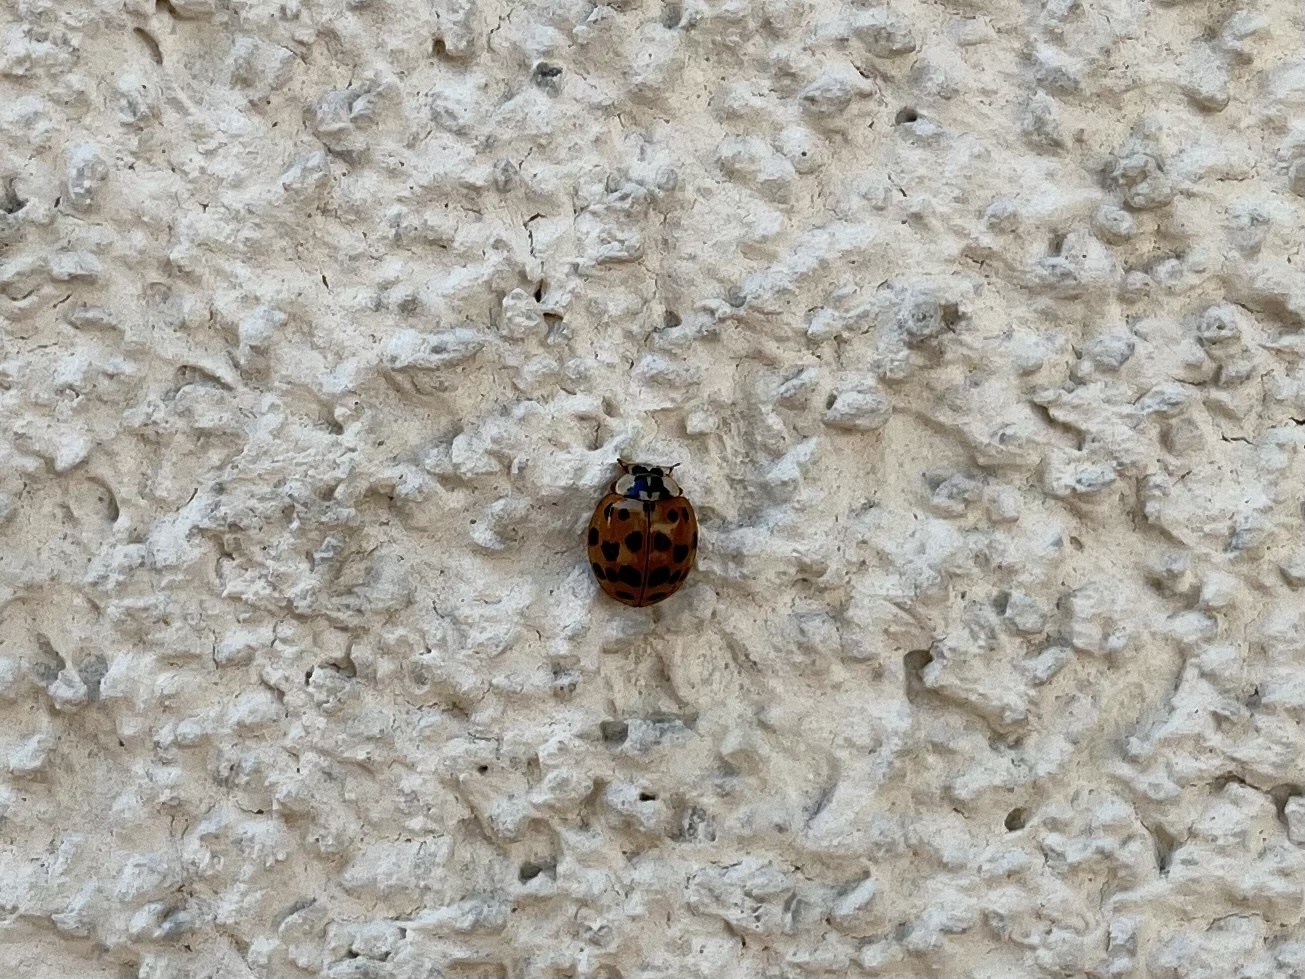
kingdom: Animalia
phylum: Arthropoda
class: Insecta
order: Coleoptera
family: Coccinellidae
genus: Harmonia
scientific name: Harmonia axyridis
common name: Harlequin ladybird
